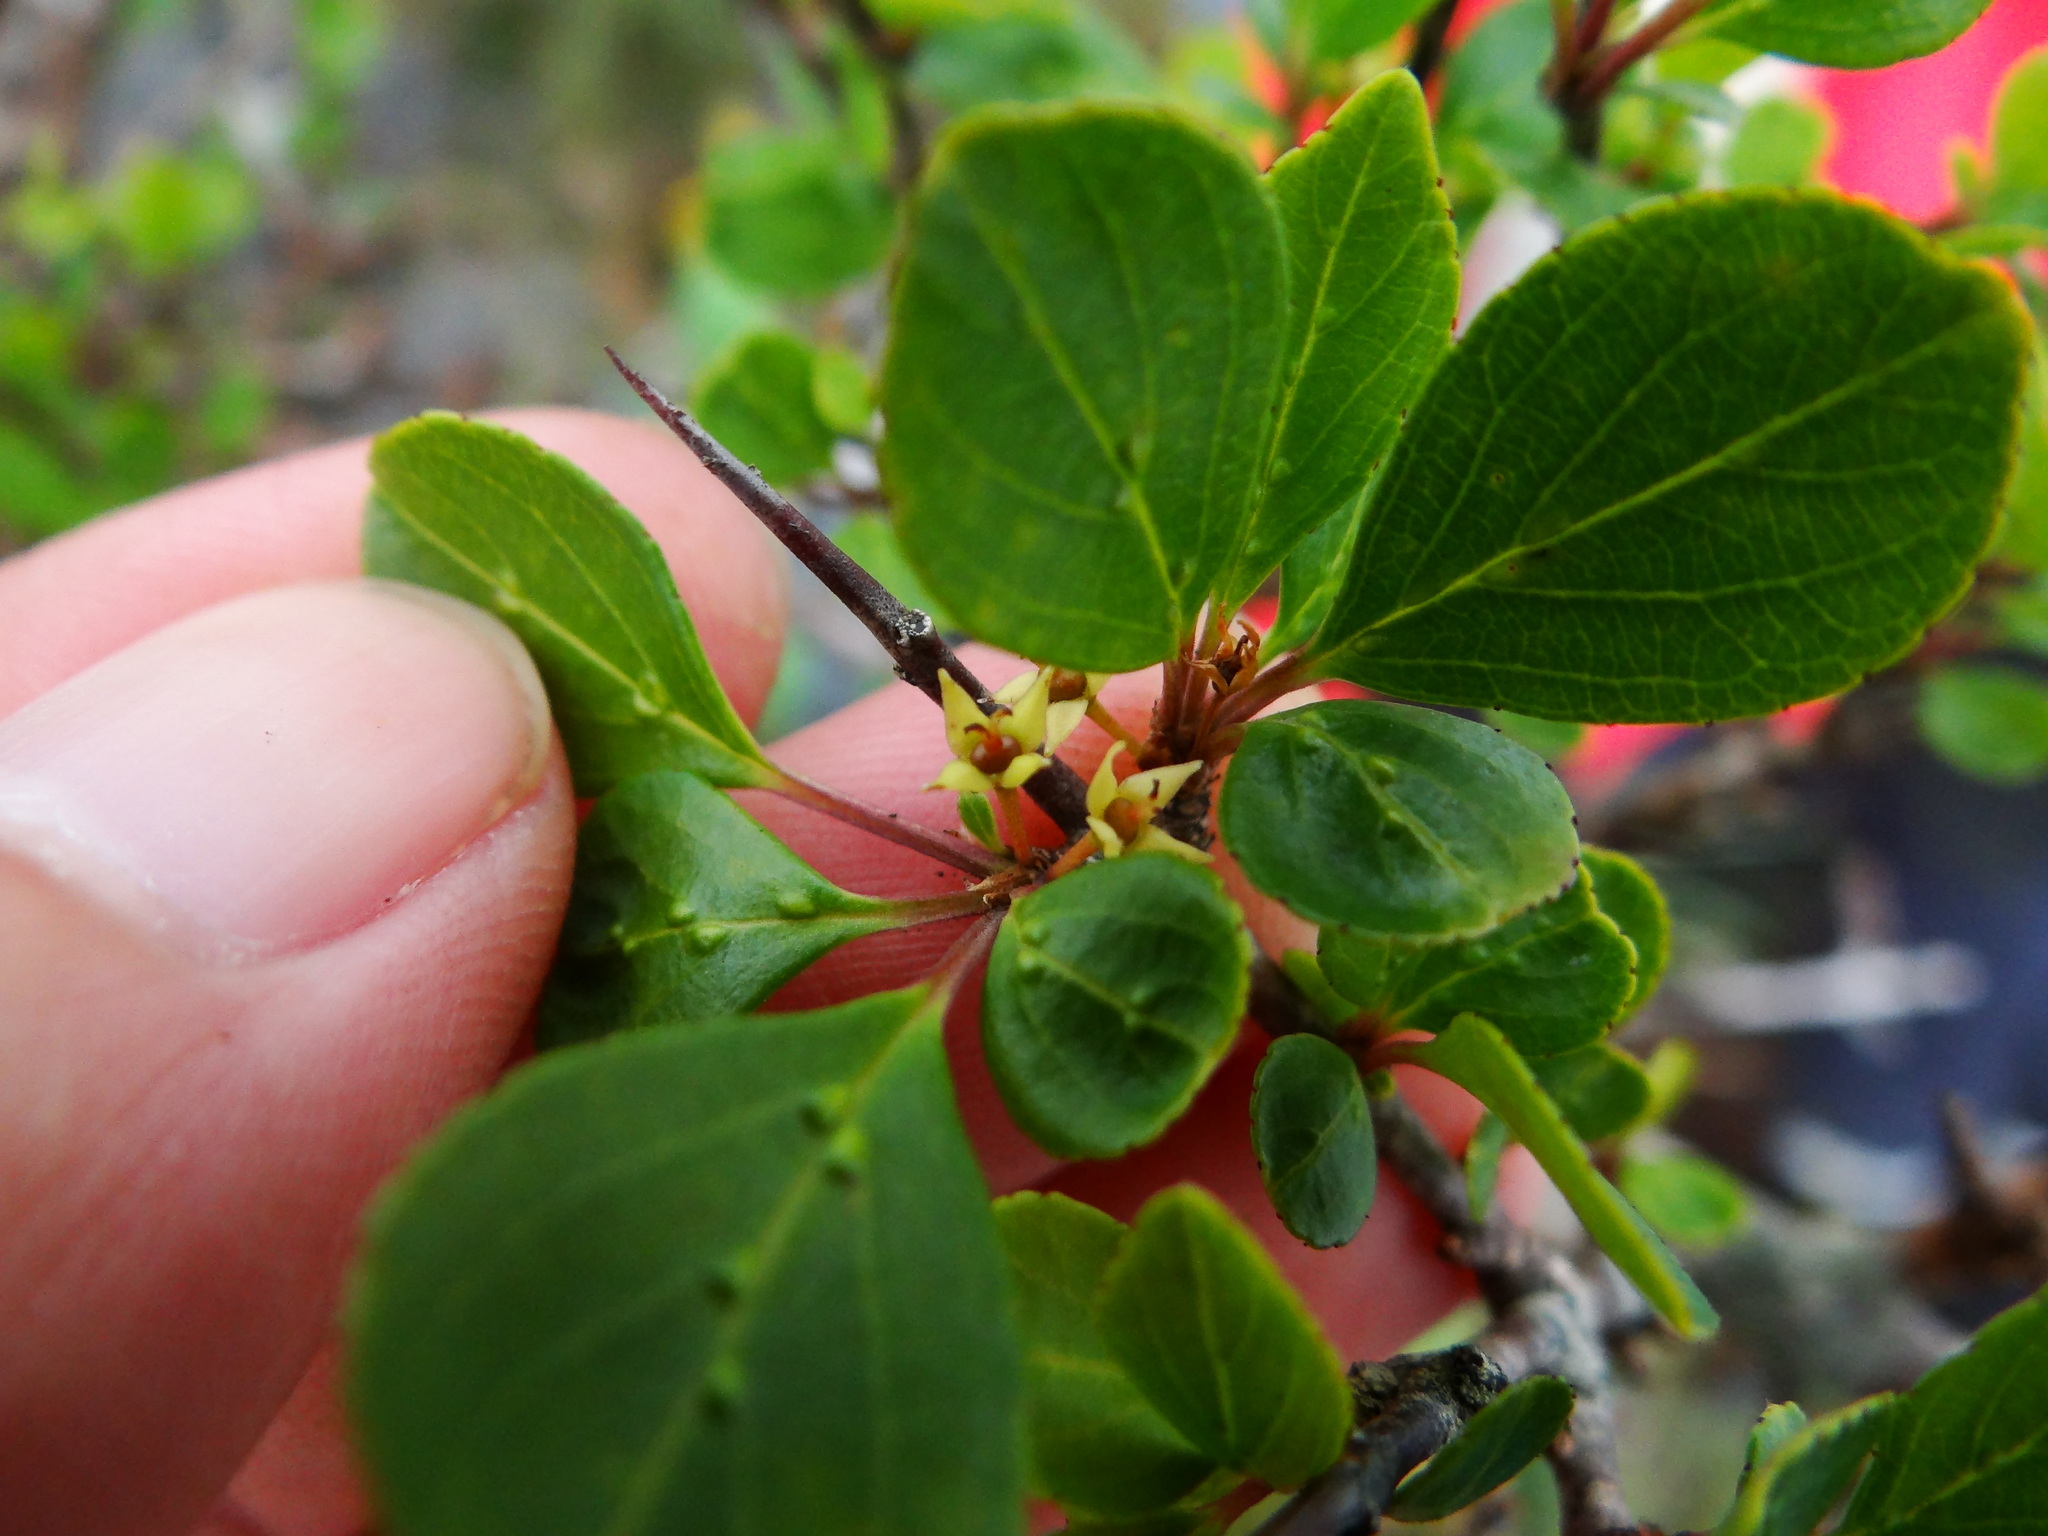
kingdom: Plantae
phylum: Tracheophyta
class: Magnoliopsida
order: Rosales
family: Rhamnaceae
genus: Rhamnus
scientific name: Rhamnus parvifolia
